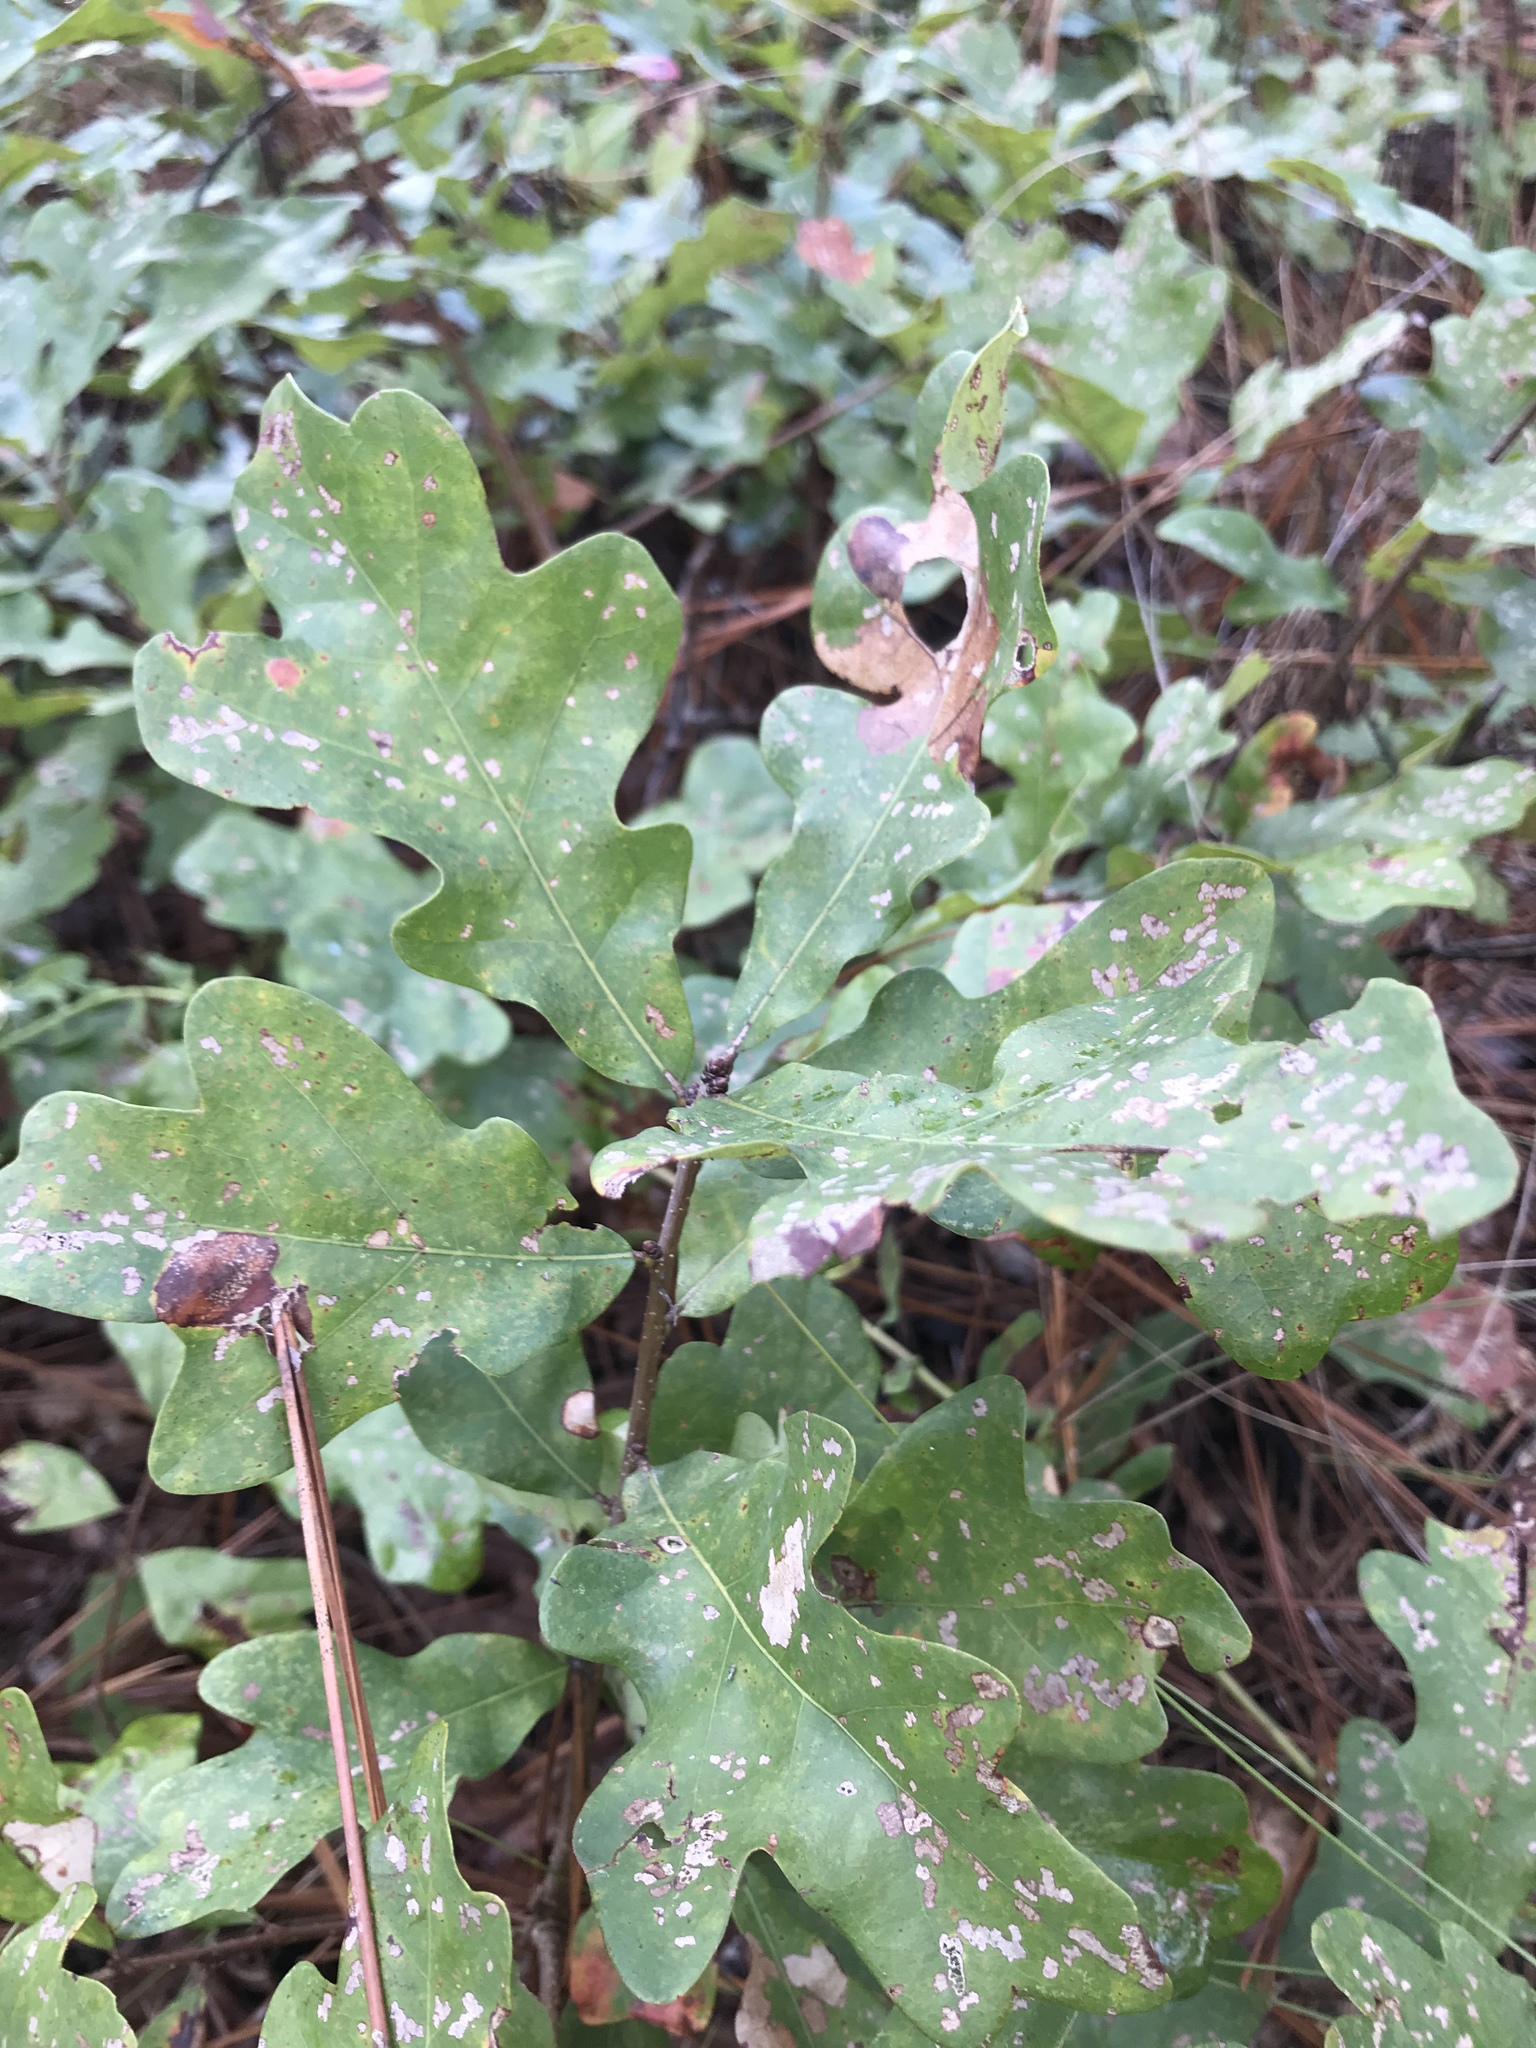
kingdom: Plantae
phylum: Tracheophyta
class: Magnoliopsida
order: Fagales
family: Fagaceae
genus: Quercus
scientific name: Quercus margaretiae
